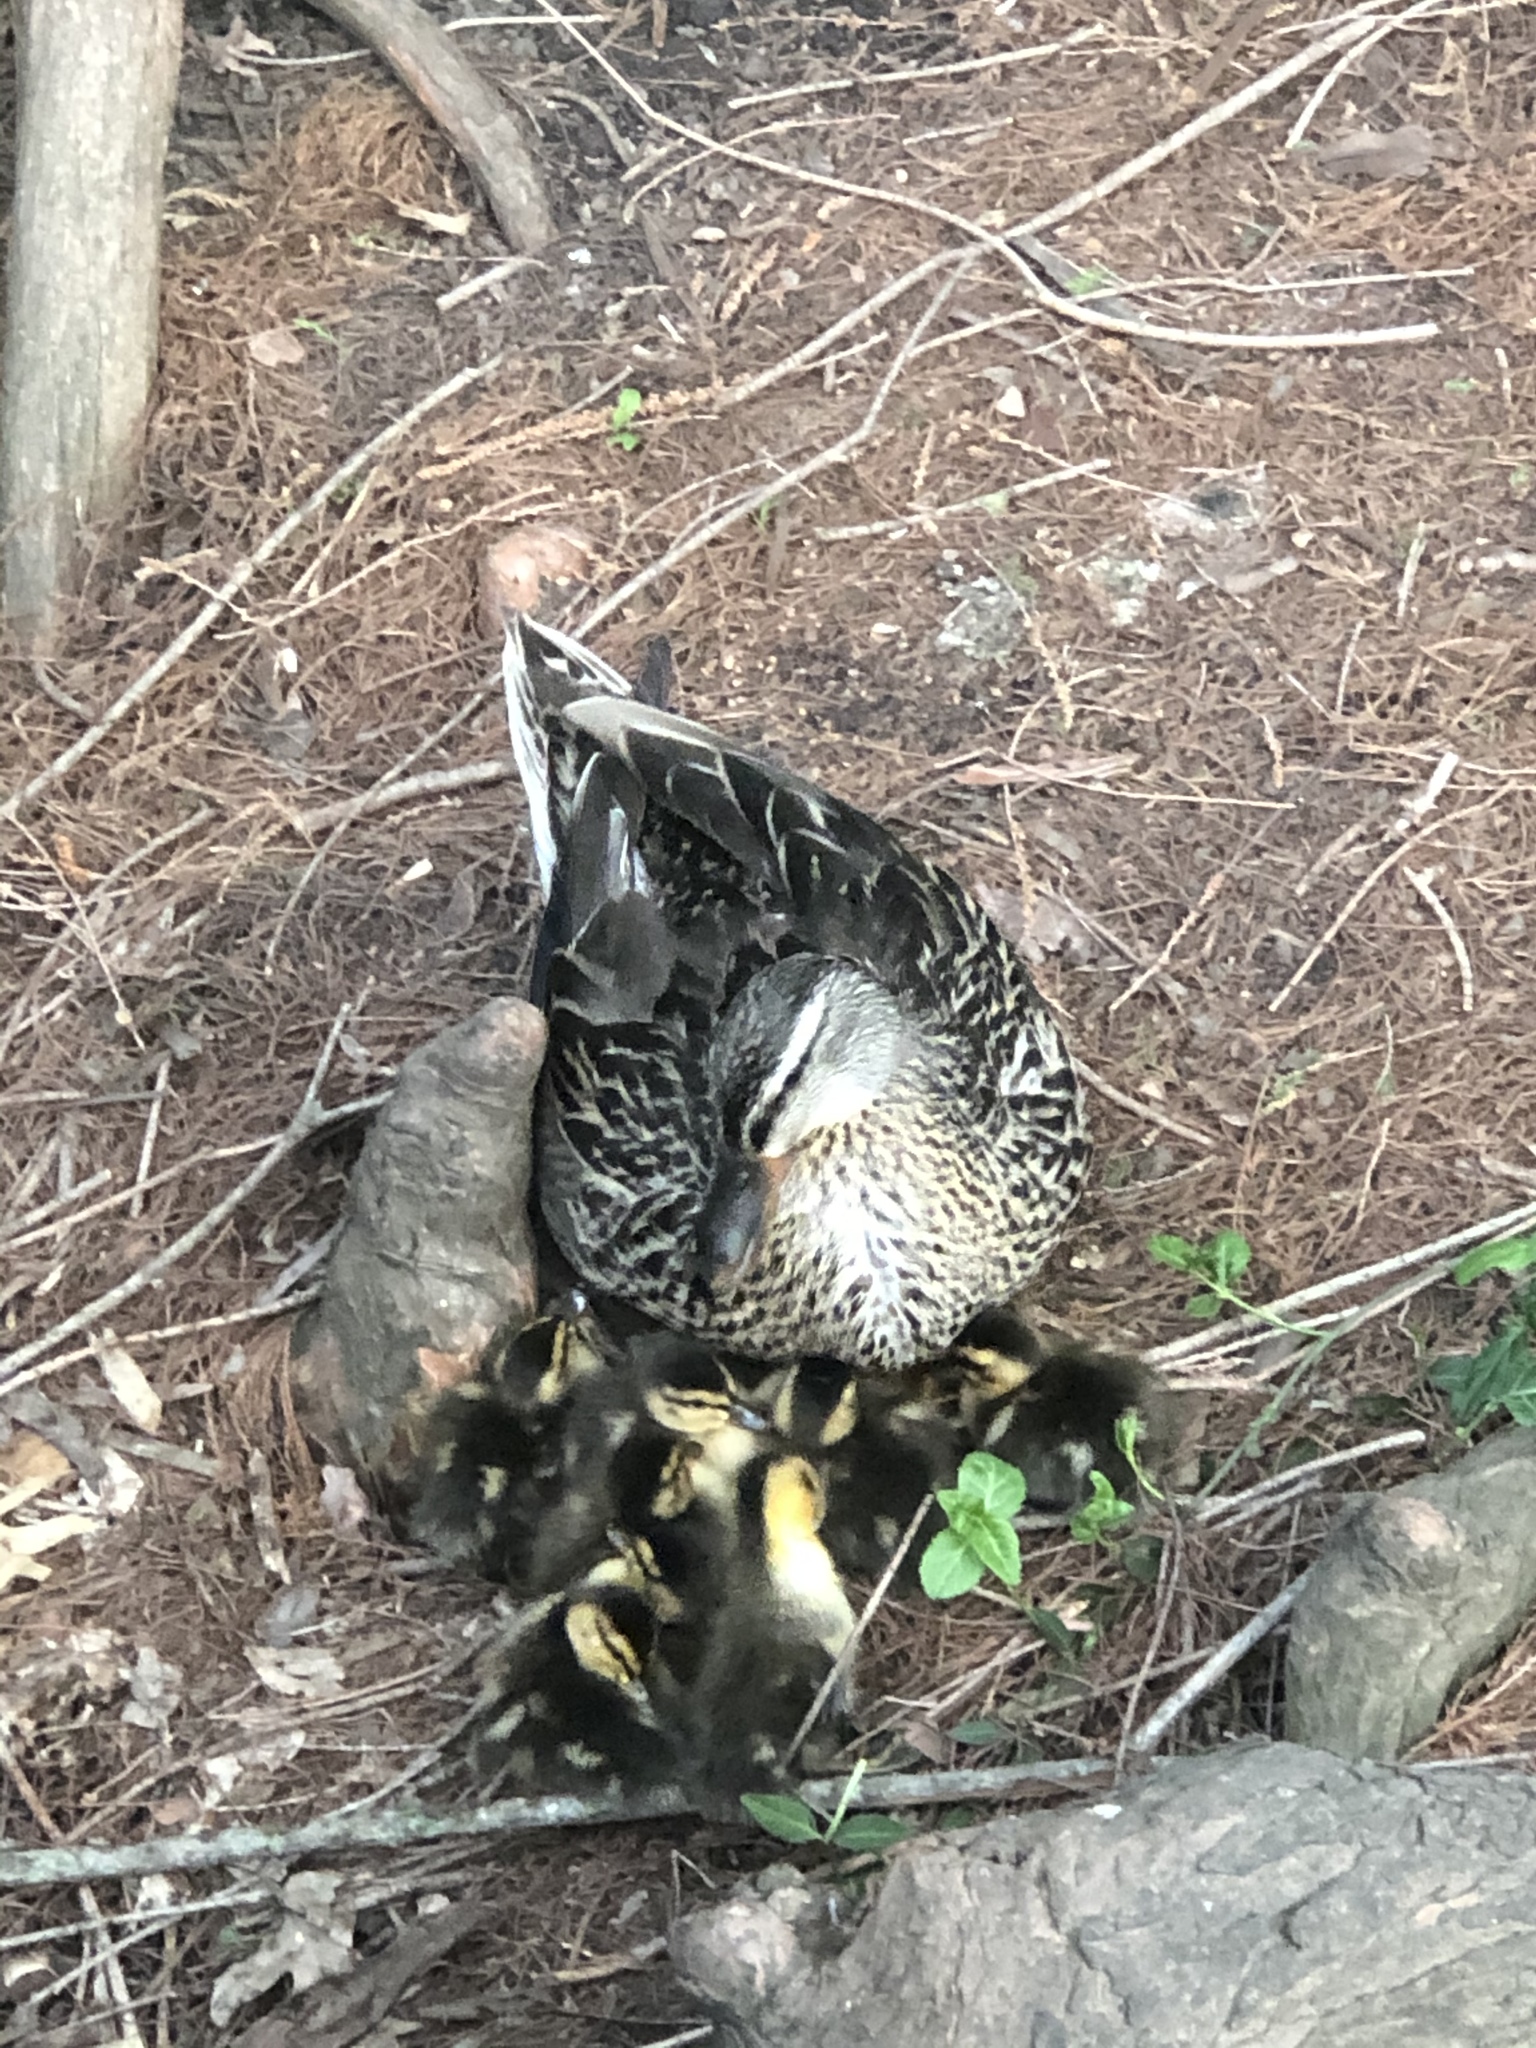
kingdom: Animalia
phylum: Chordata
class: Aves
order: Anseriformes
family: Anatidae
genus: Anas
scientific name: Anas platyrhynchos
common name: Mallard
